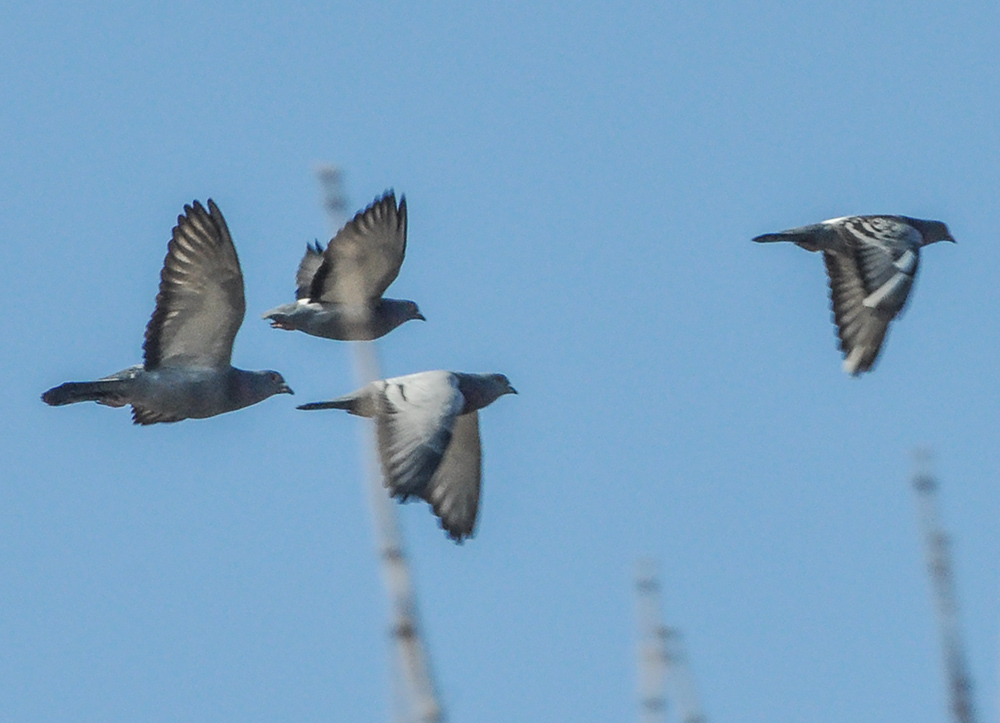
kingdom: Animalia
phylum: Chordata
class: Aves
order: Columbiformes
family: Columbidae
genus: Columba
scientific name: Columba livia
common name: Rock pigeon
